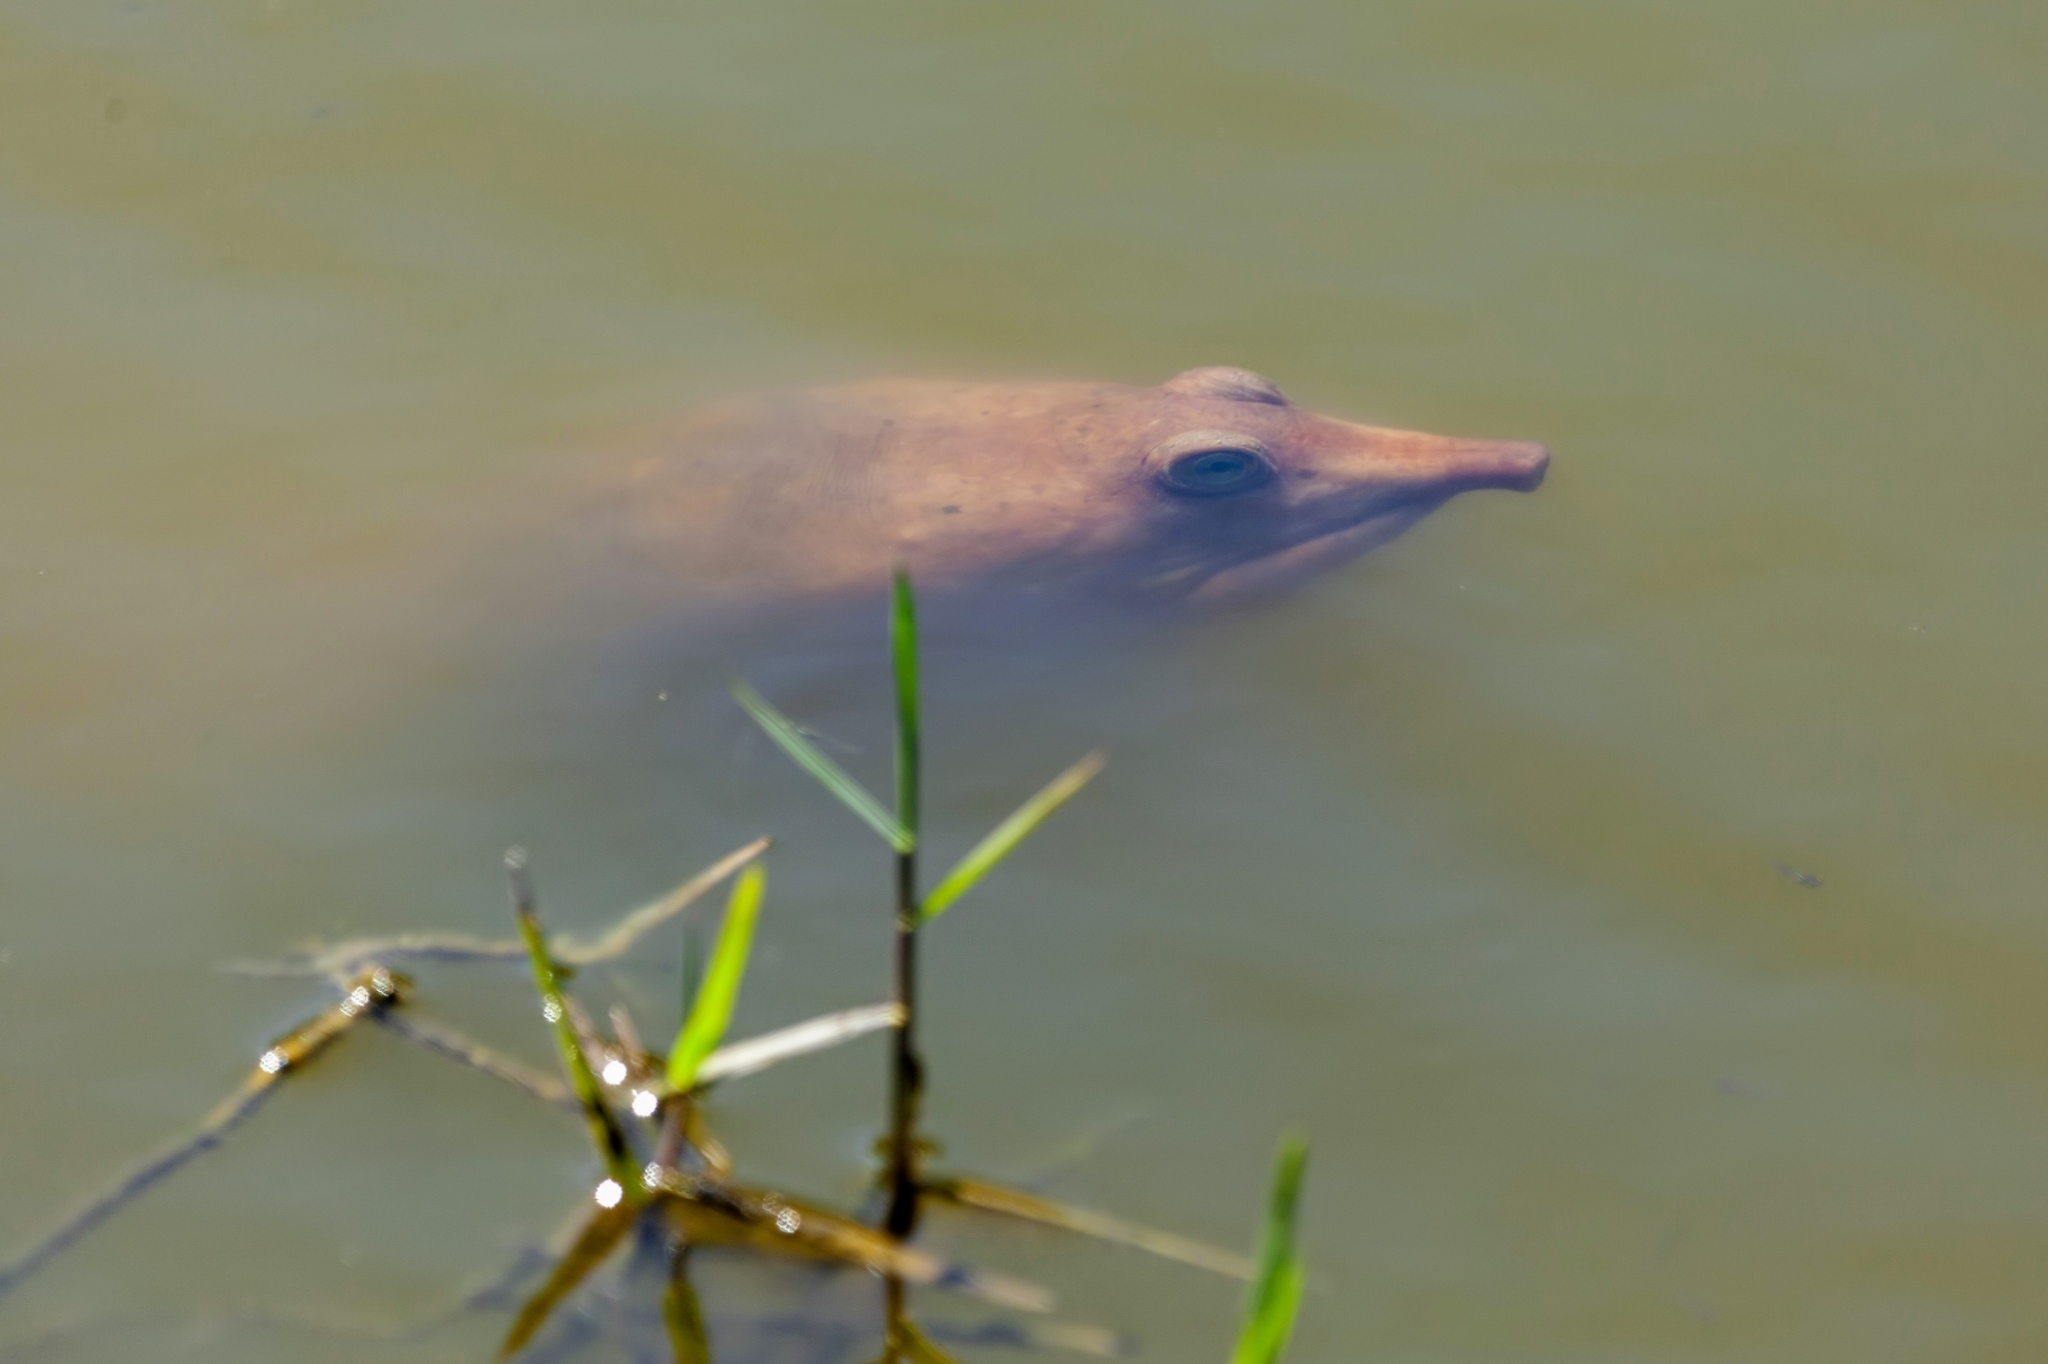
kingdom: Animalia
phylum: Chordata
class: Testudines
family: Trionychidae
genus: Apalone
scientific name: Apalone ferox
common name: Florida softshell turtle
